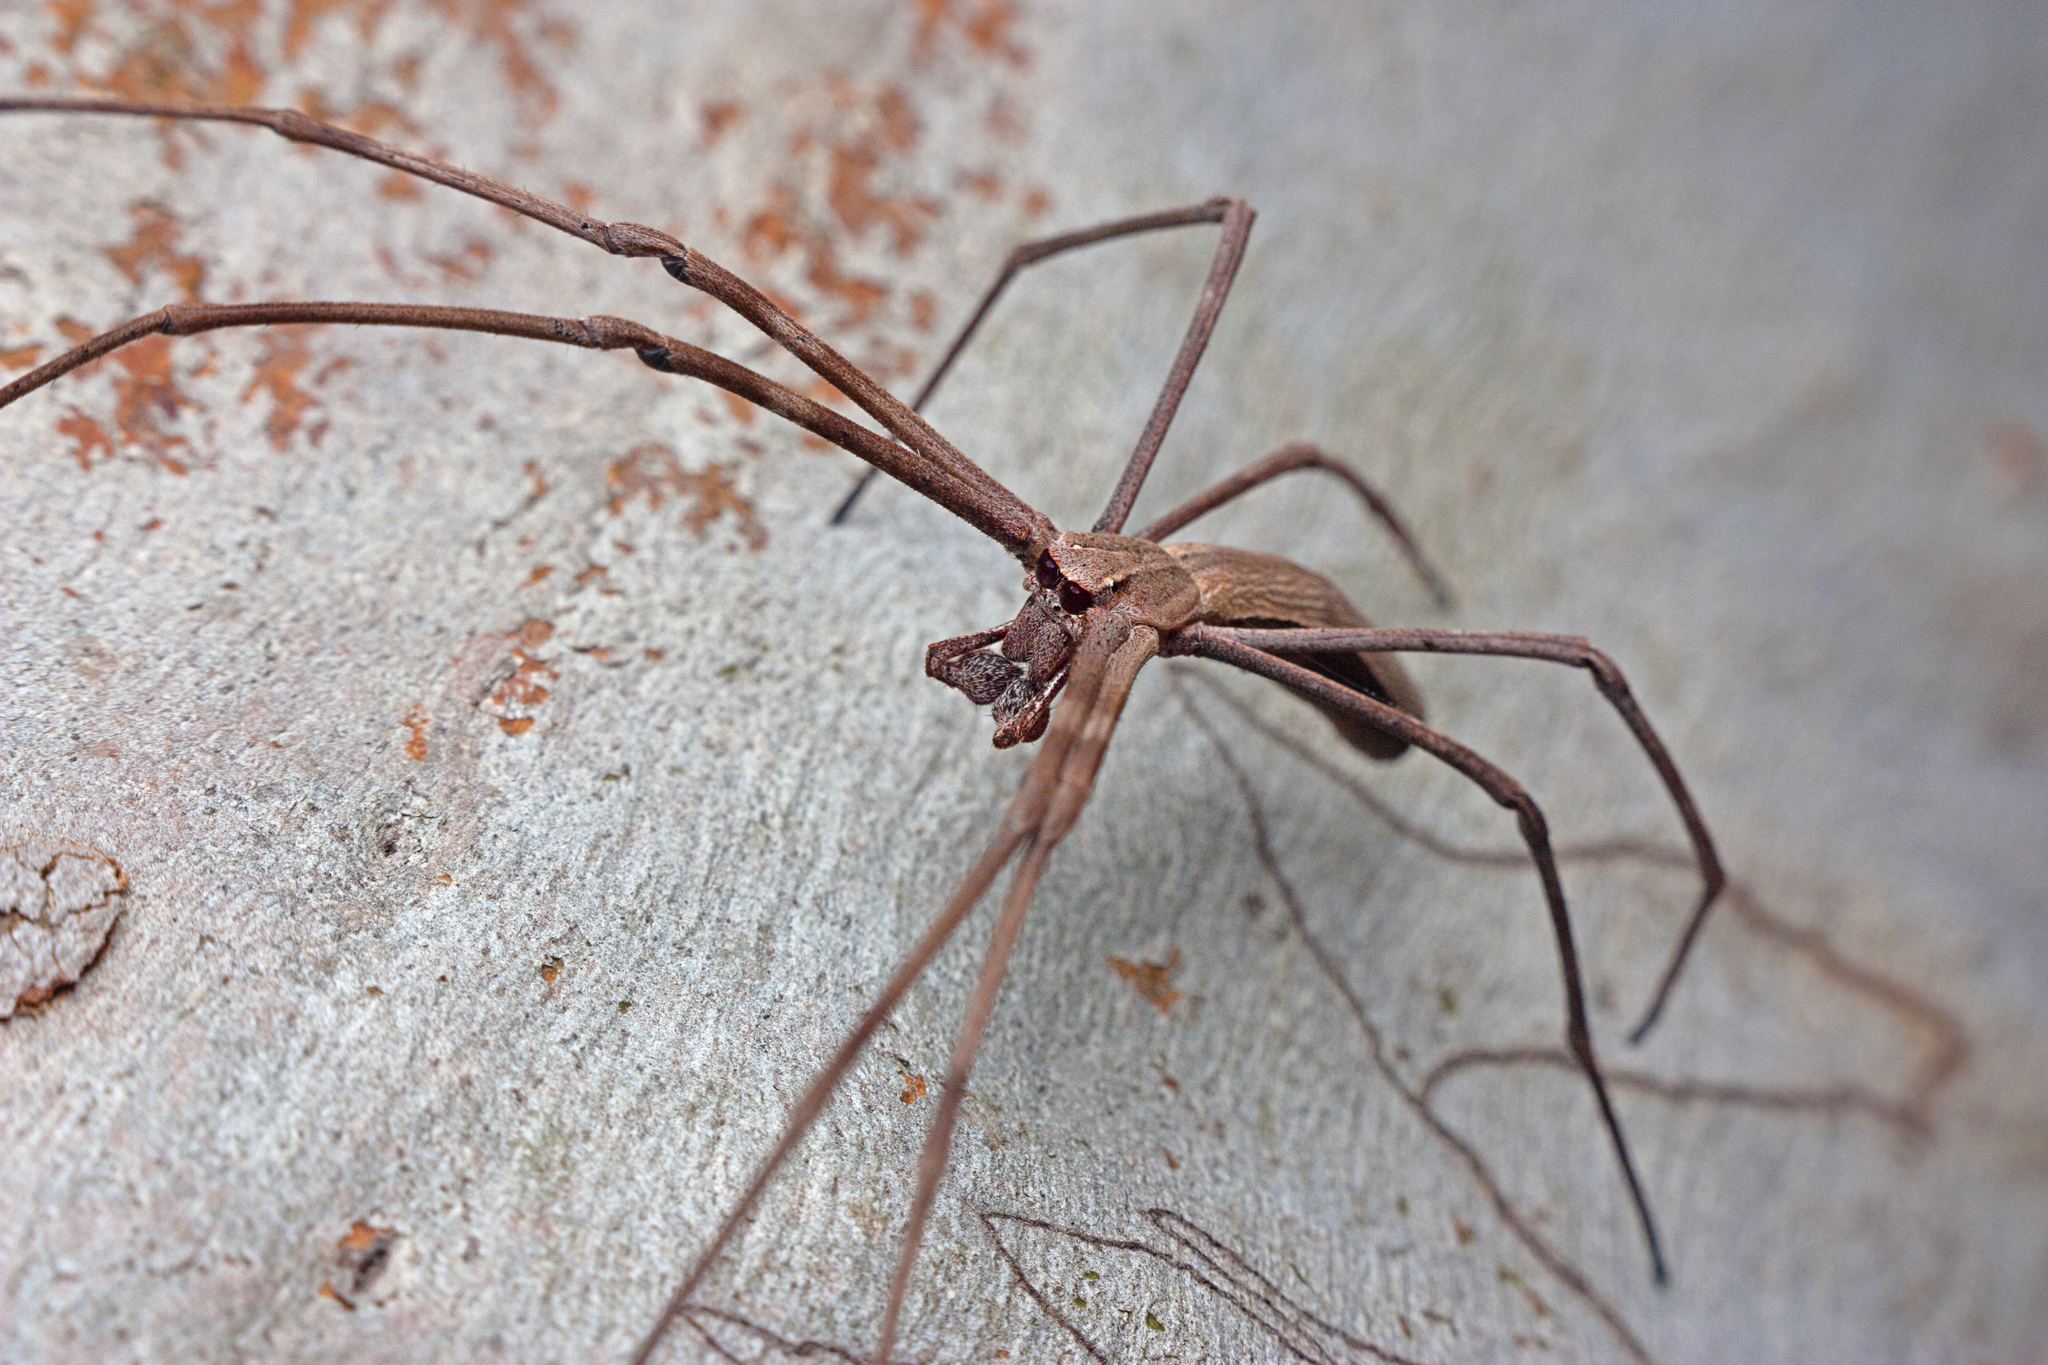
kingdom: Animalia
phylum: Arthropoda
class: Arachnida
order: Araneae
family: Deinopidae
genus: Deinopis
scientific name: Deinopis subrufa
